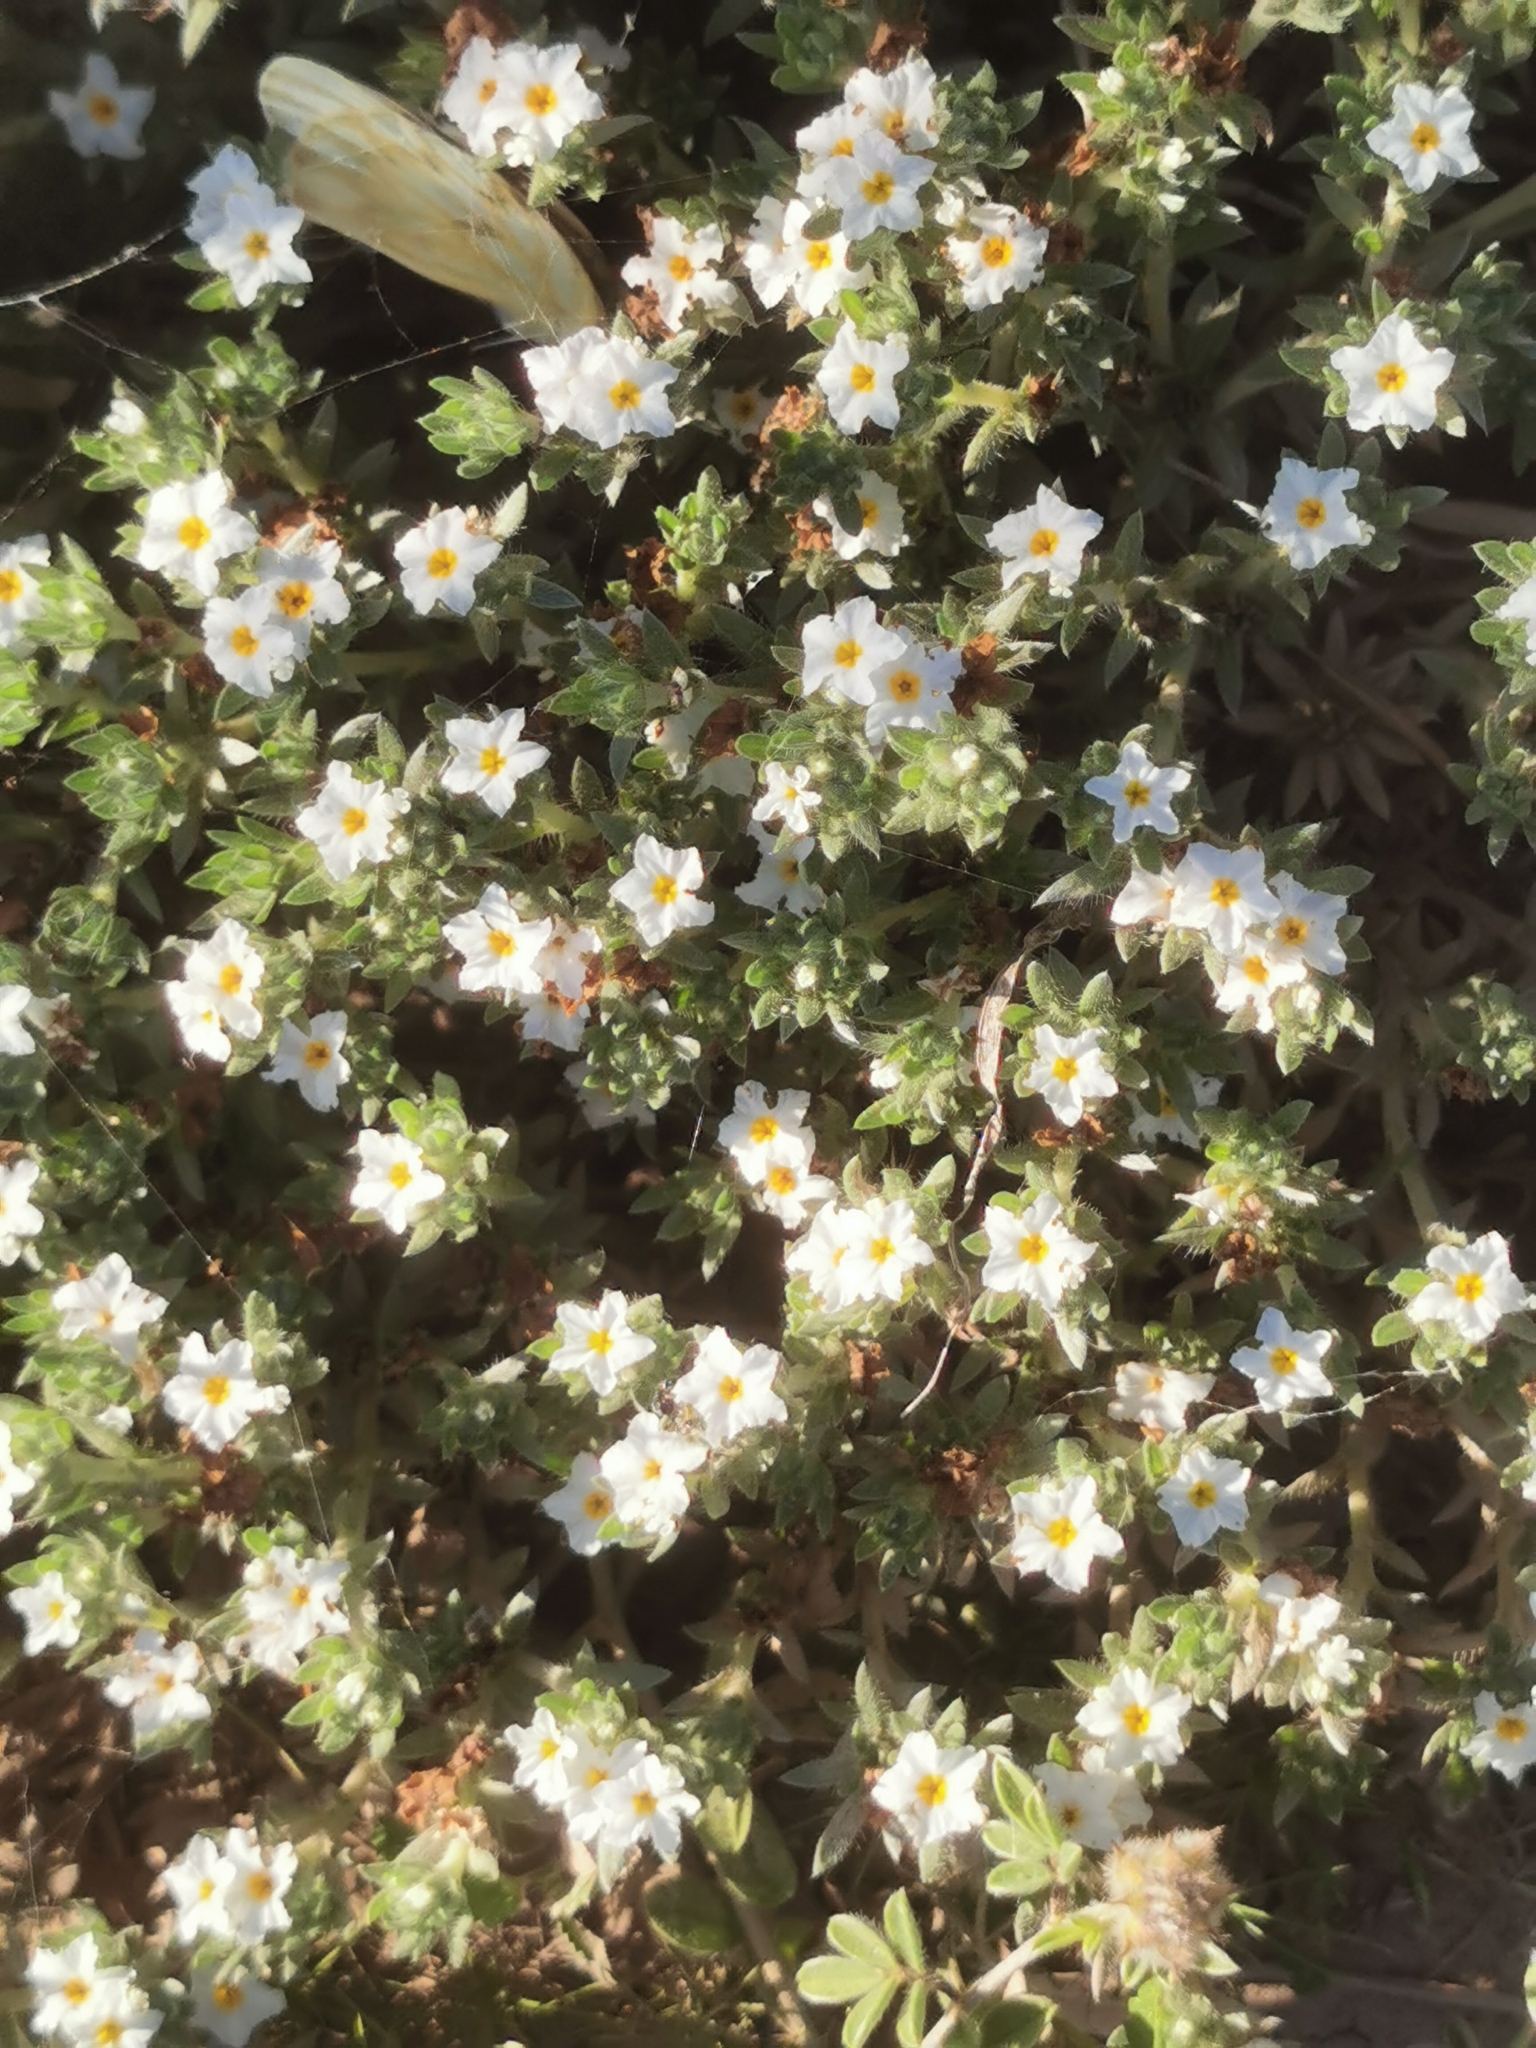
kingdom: Plantae
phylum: Tracheophyta
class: Magnoliopsida
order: Boraginales
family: Heliotropiaceae
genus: Euploca
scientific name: Euploca confertifolia
